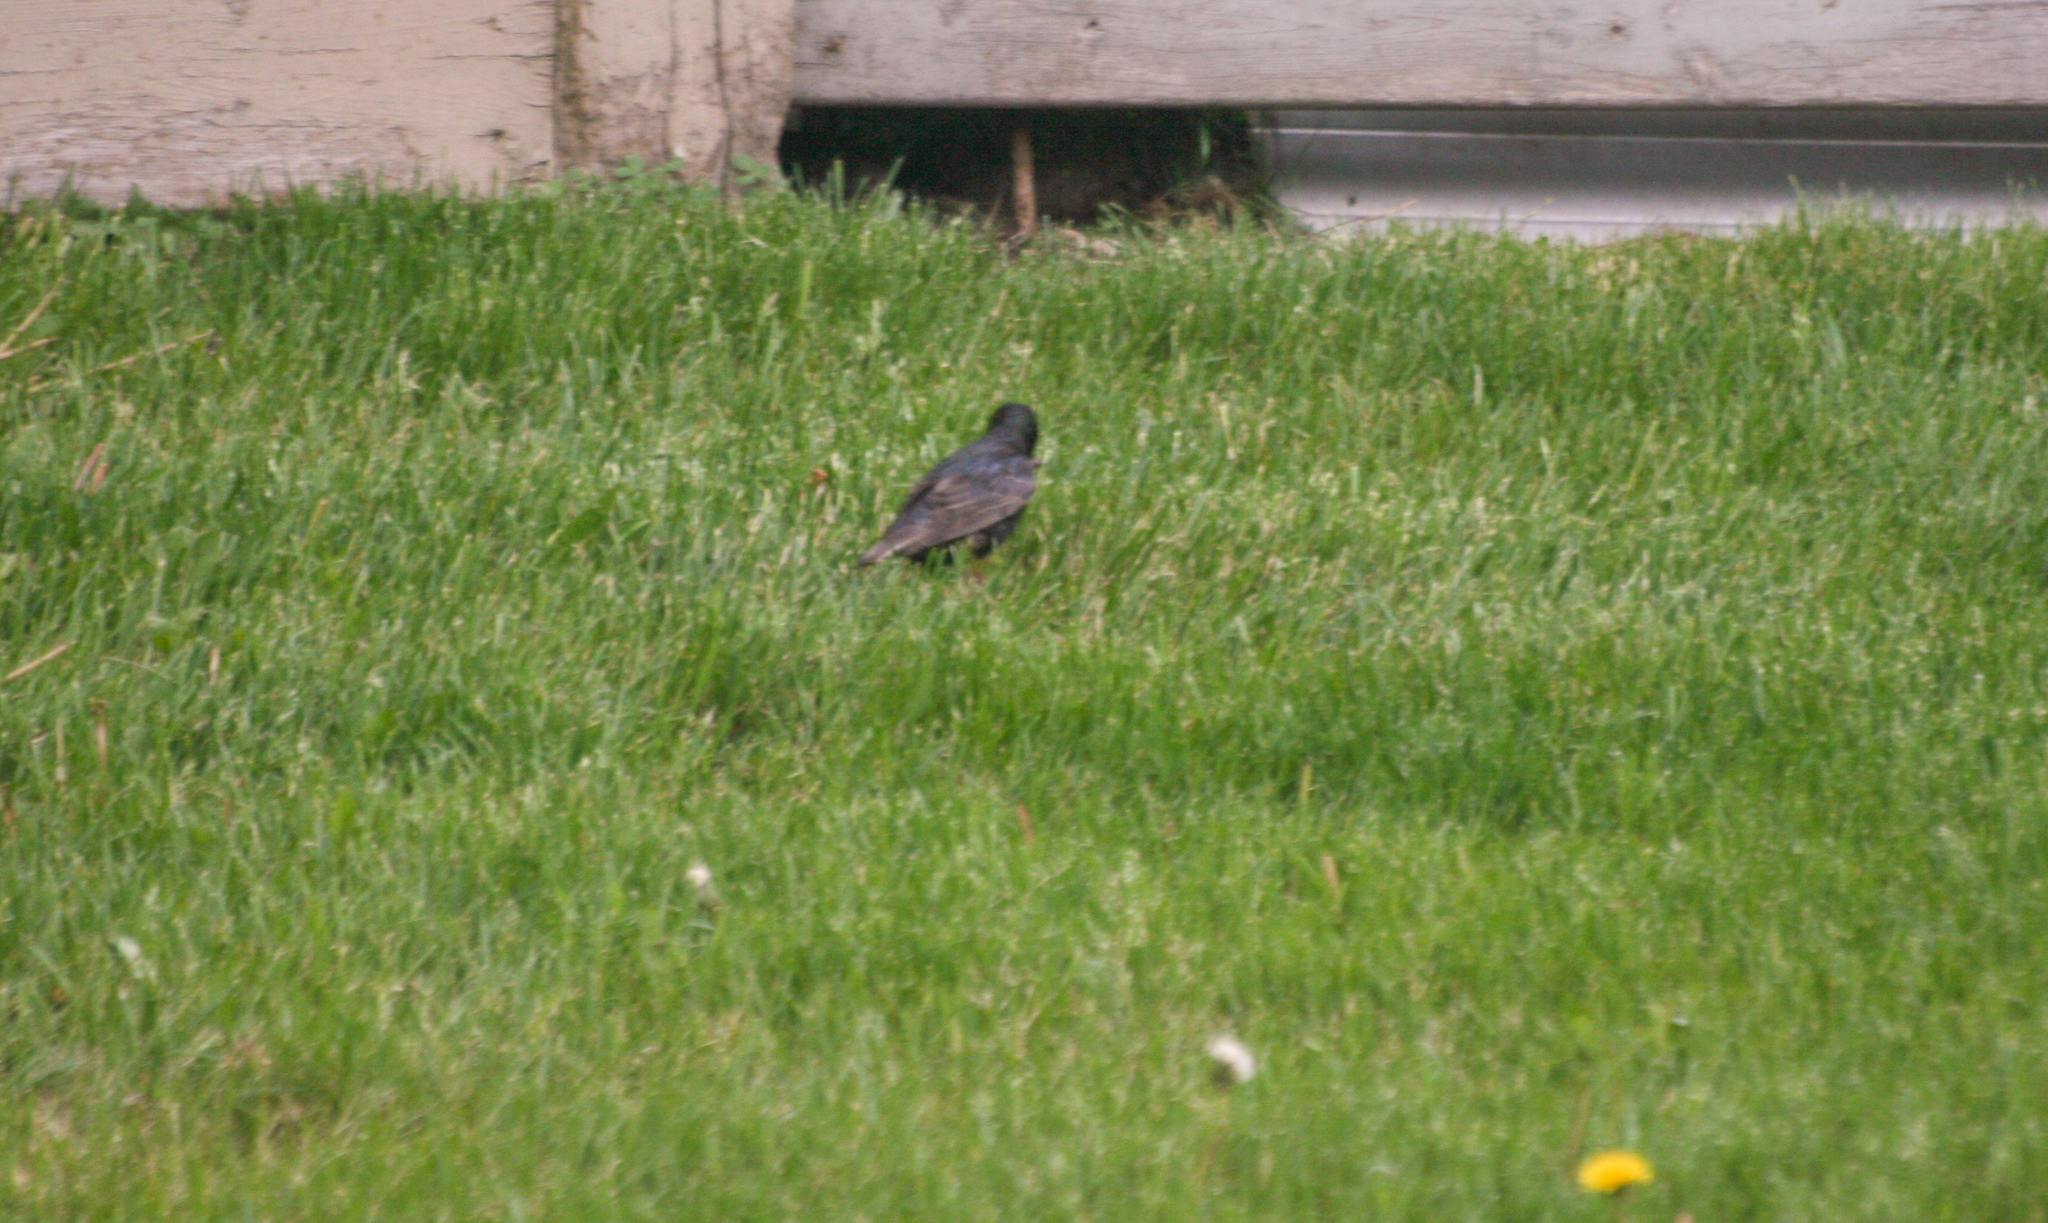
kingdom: Animalia
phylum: Chordata
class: Aves
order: Passeriformes
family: Sturnidae
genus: Sturnus
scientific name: Sturnus vulgaris
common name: Common starling
